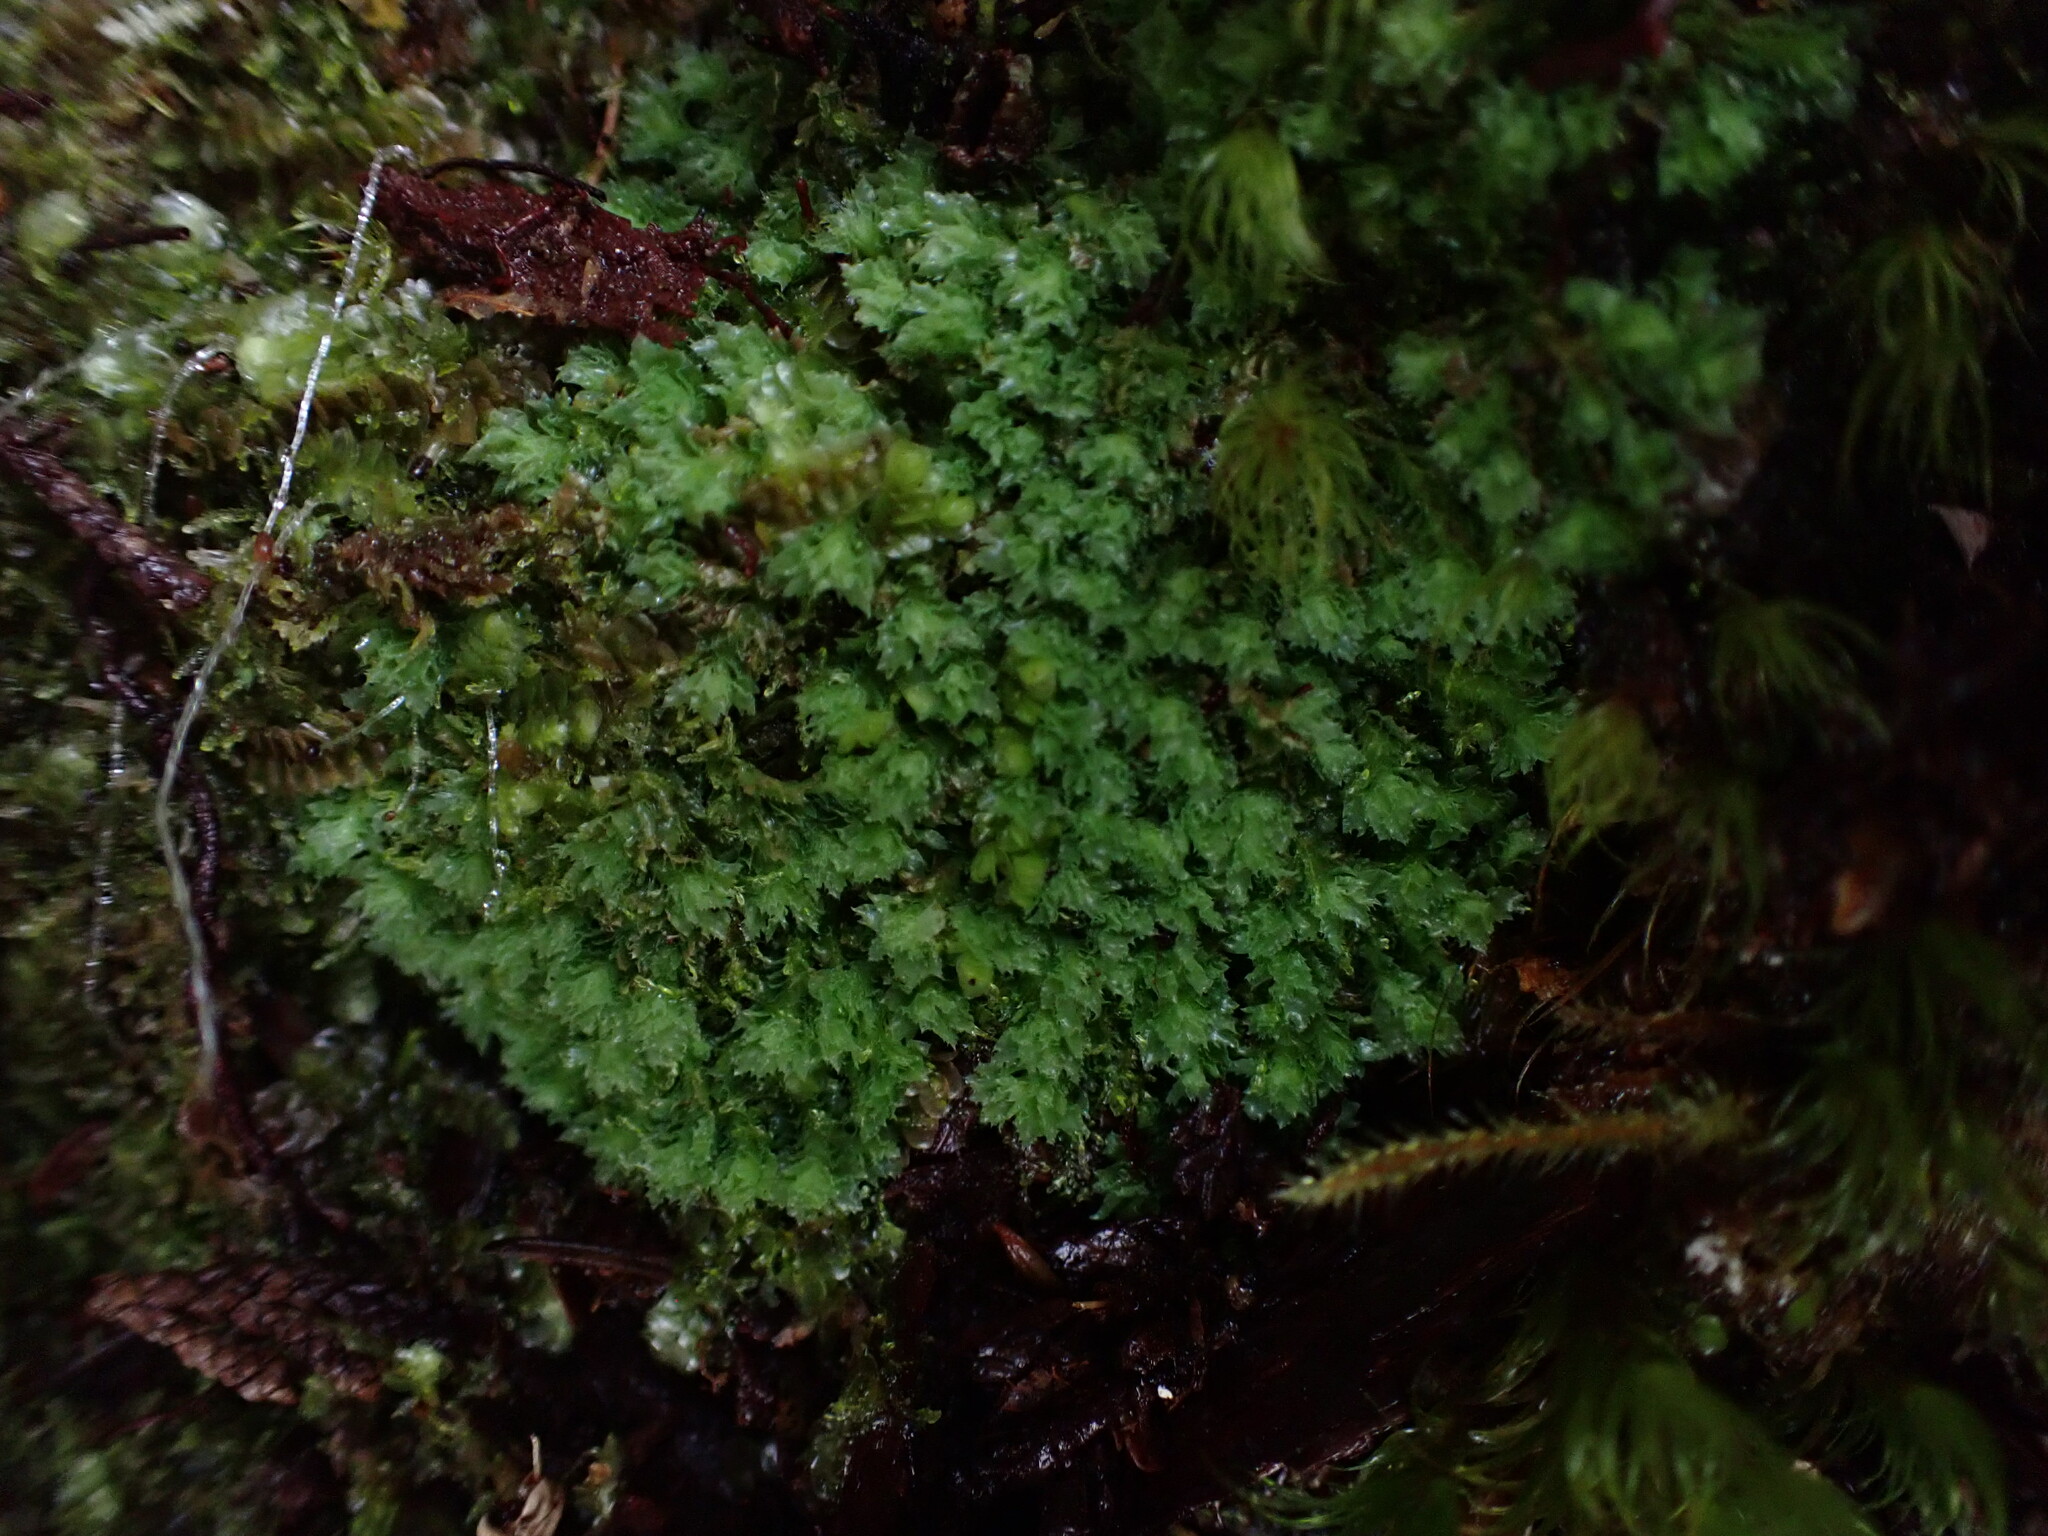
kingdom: Plantae
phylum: Marchantiophyta
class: Jungermanniopsida
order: Jungermanniales
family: Scapaniaceae
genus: Schistochilopsis
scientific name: Schistochilopsis incisa
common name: Jagged notchwort
